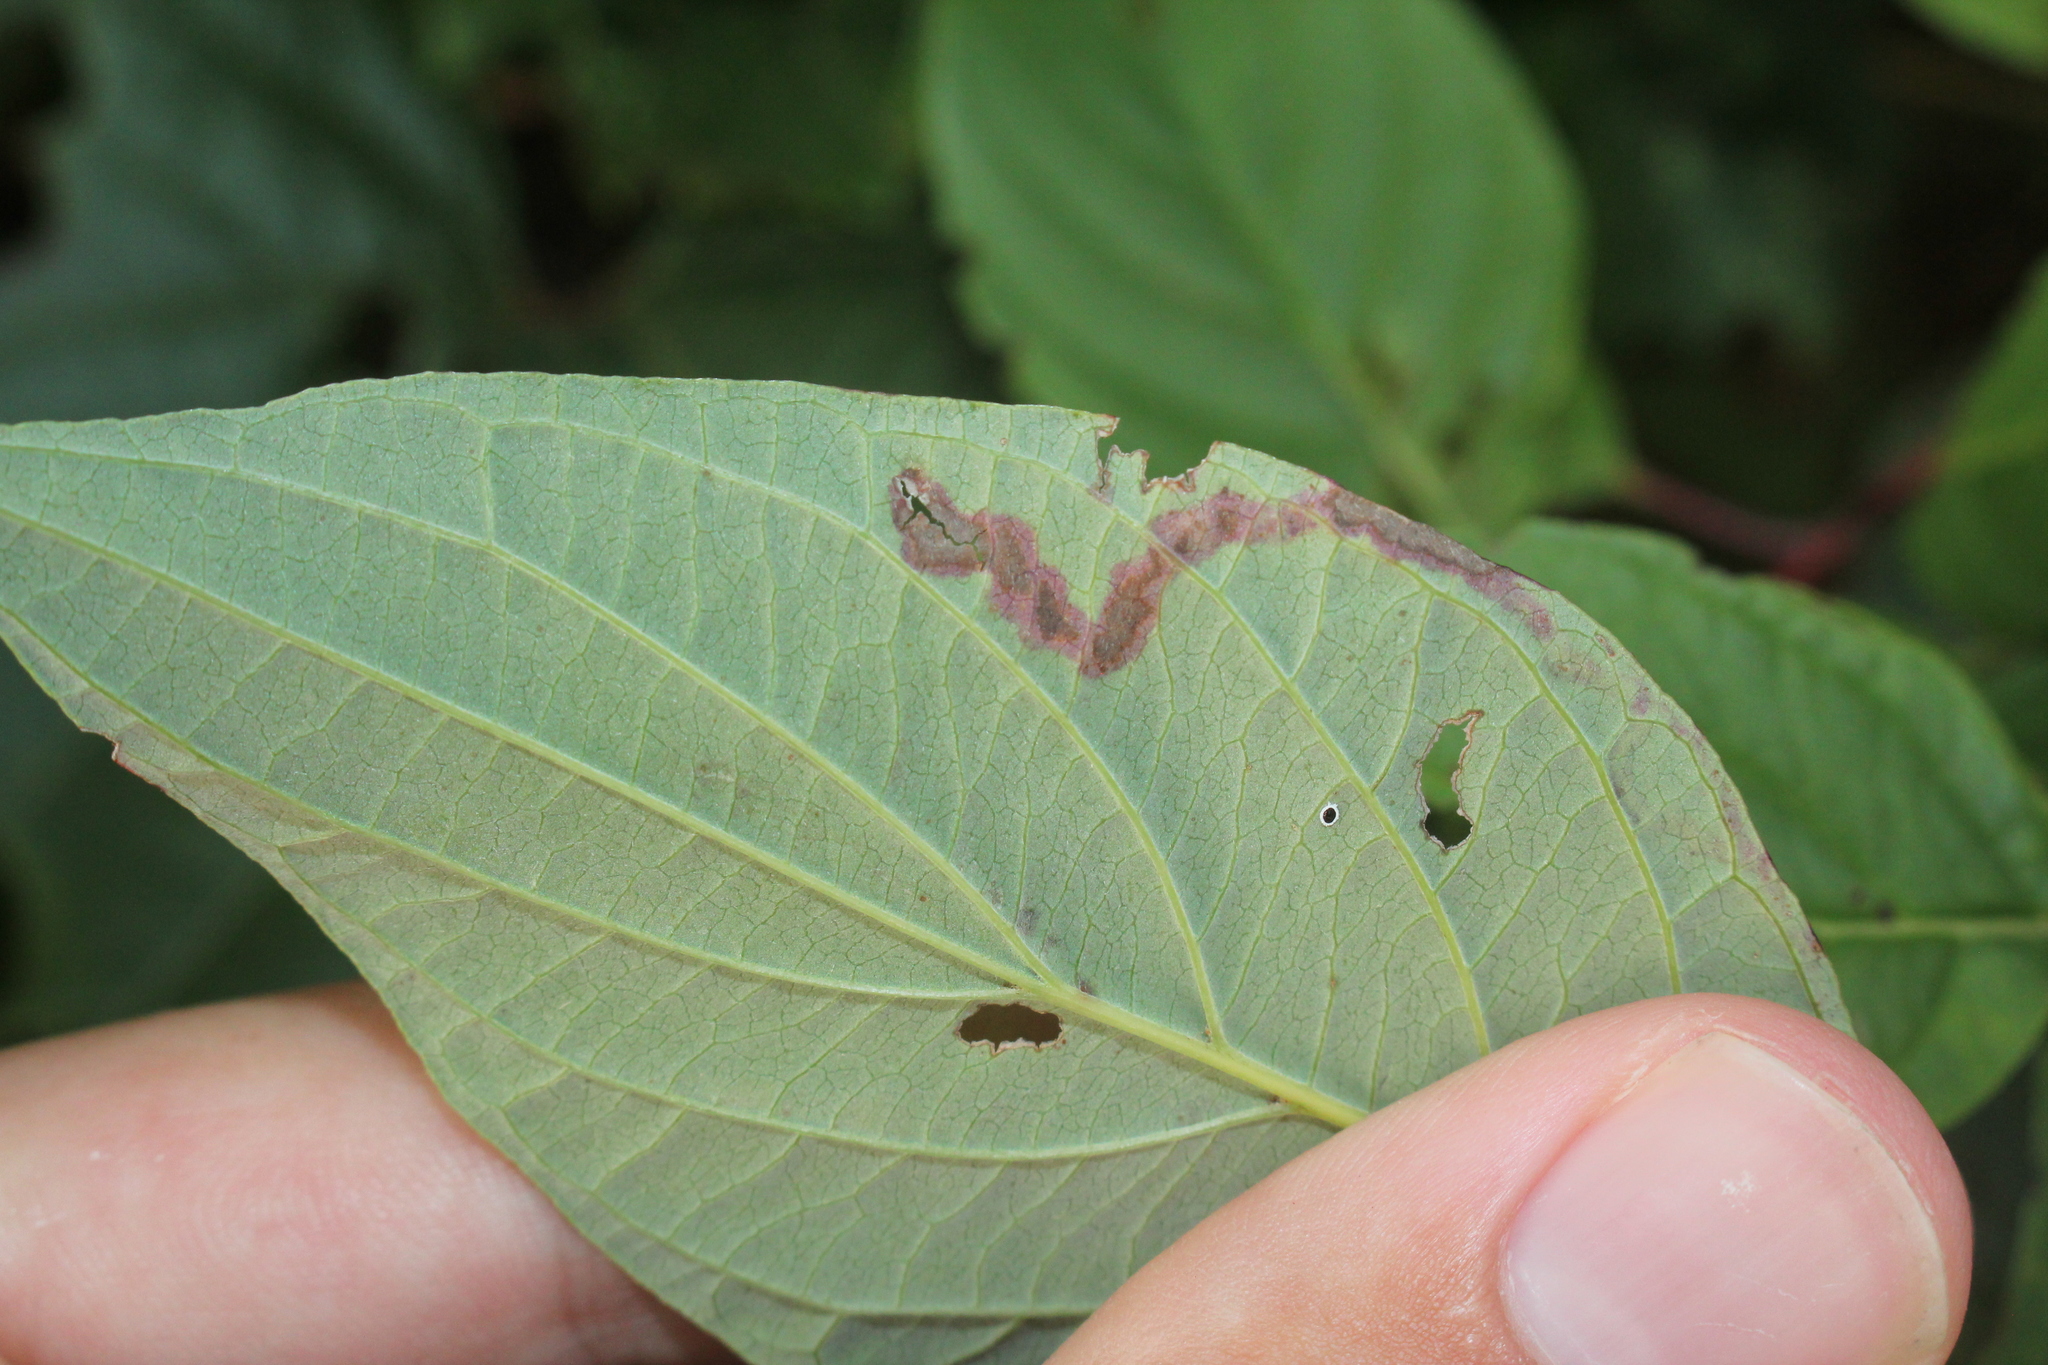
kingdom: Animalia
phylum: Arthropoda
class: Insecta
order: Diptera
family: Agromyzidae
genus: Phytomyza
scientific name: Phytomyza agromyzina
